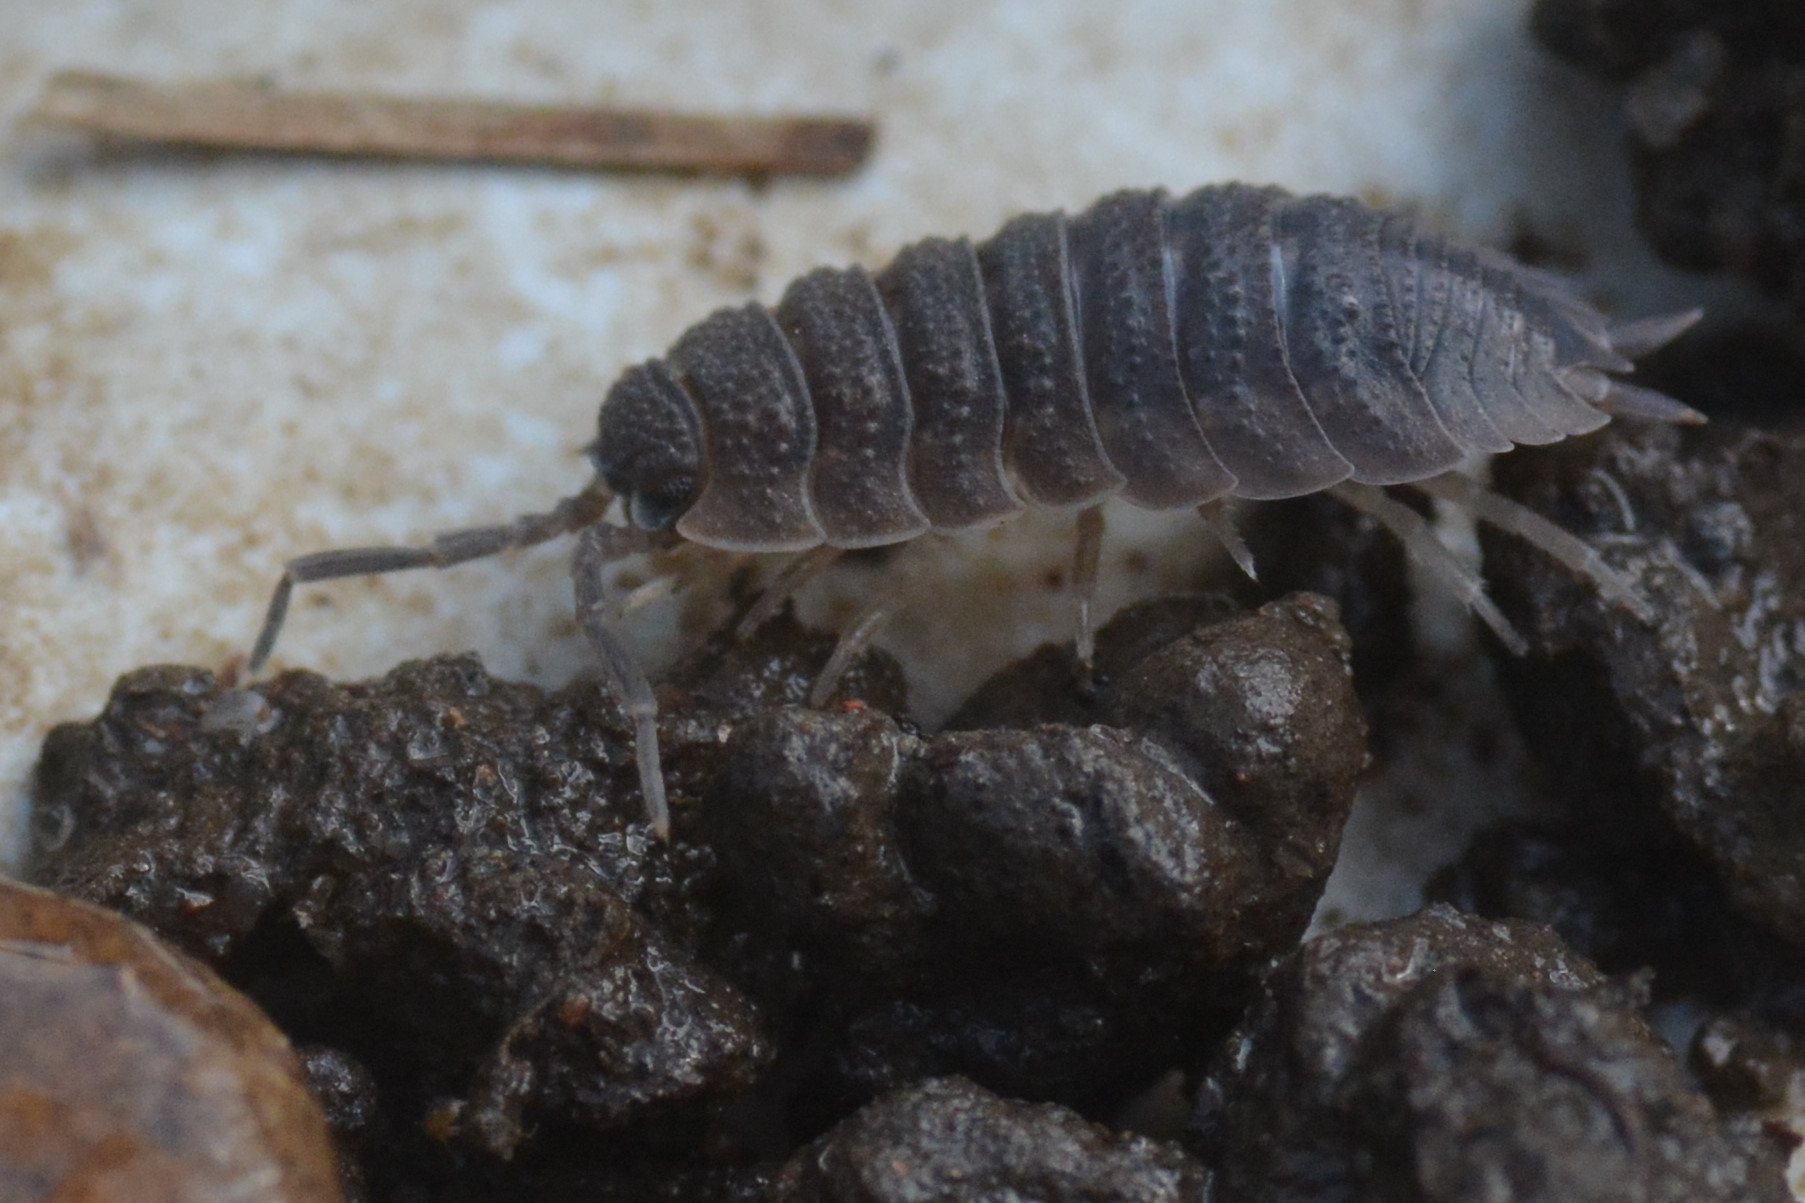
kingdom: Animalia
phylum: Arthropoda
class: Malacostraca
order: Isopoda
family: Porcellionidae
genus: Porcellio
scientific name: Porcellio scaber
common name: Common rough woodlouse
